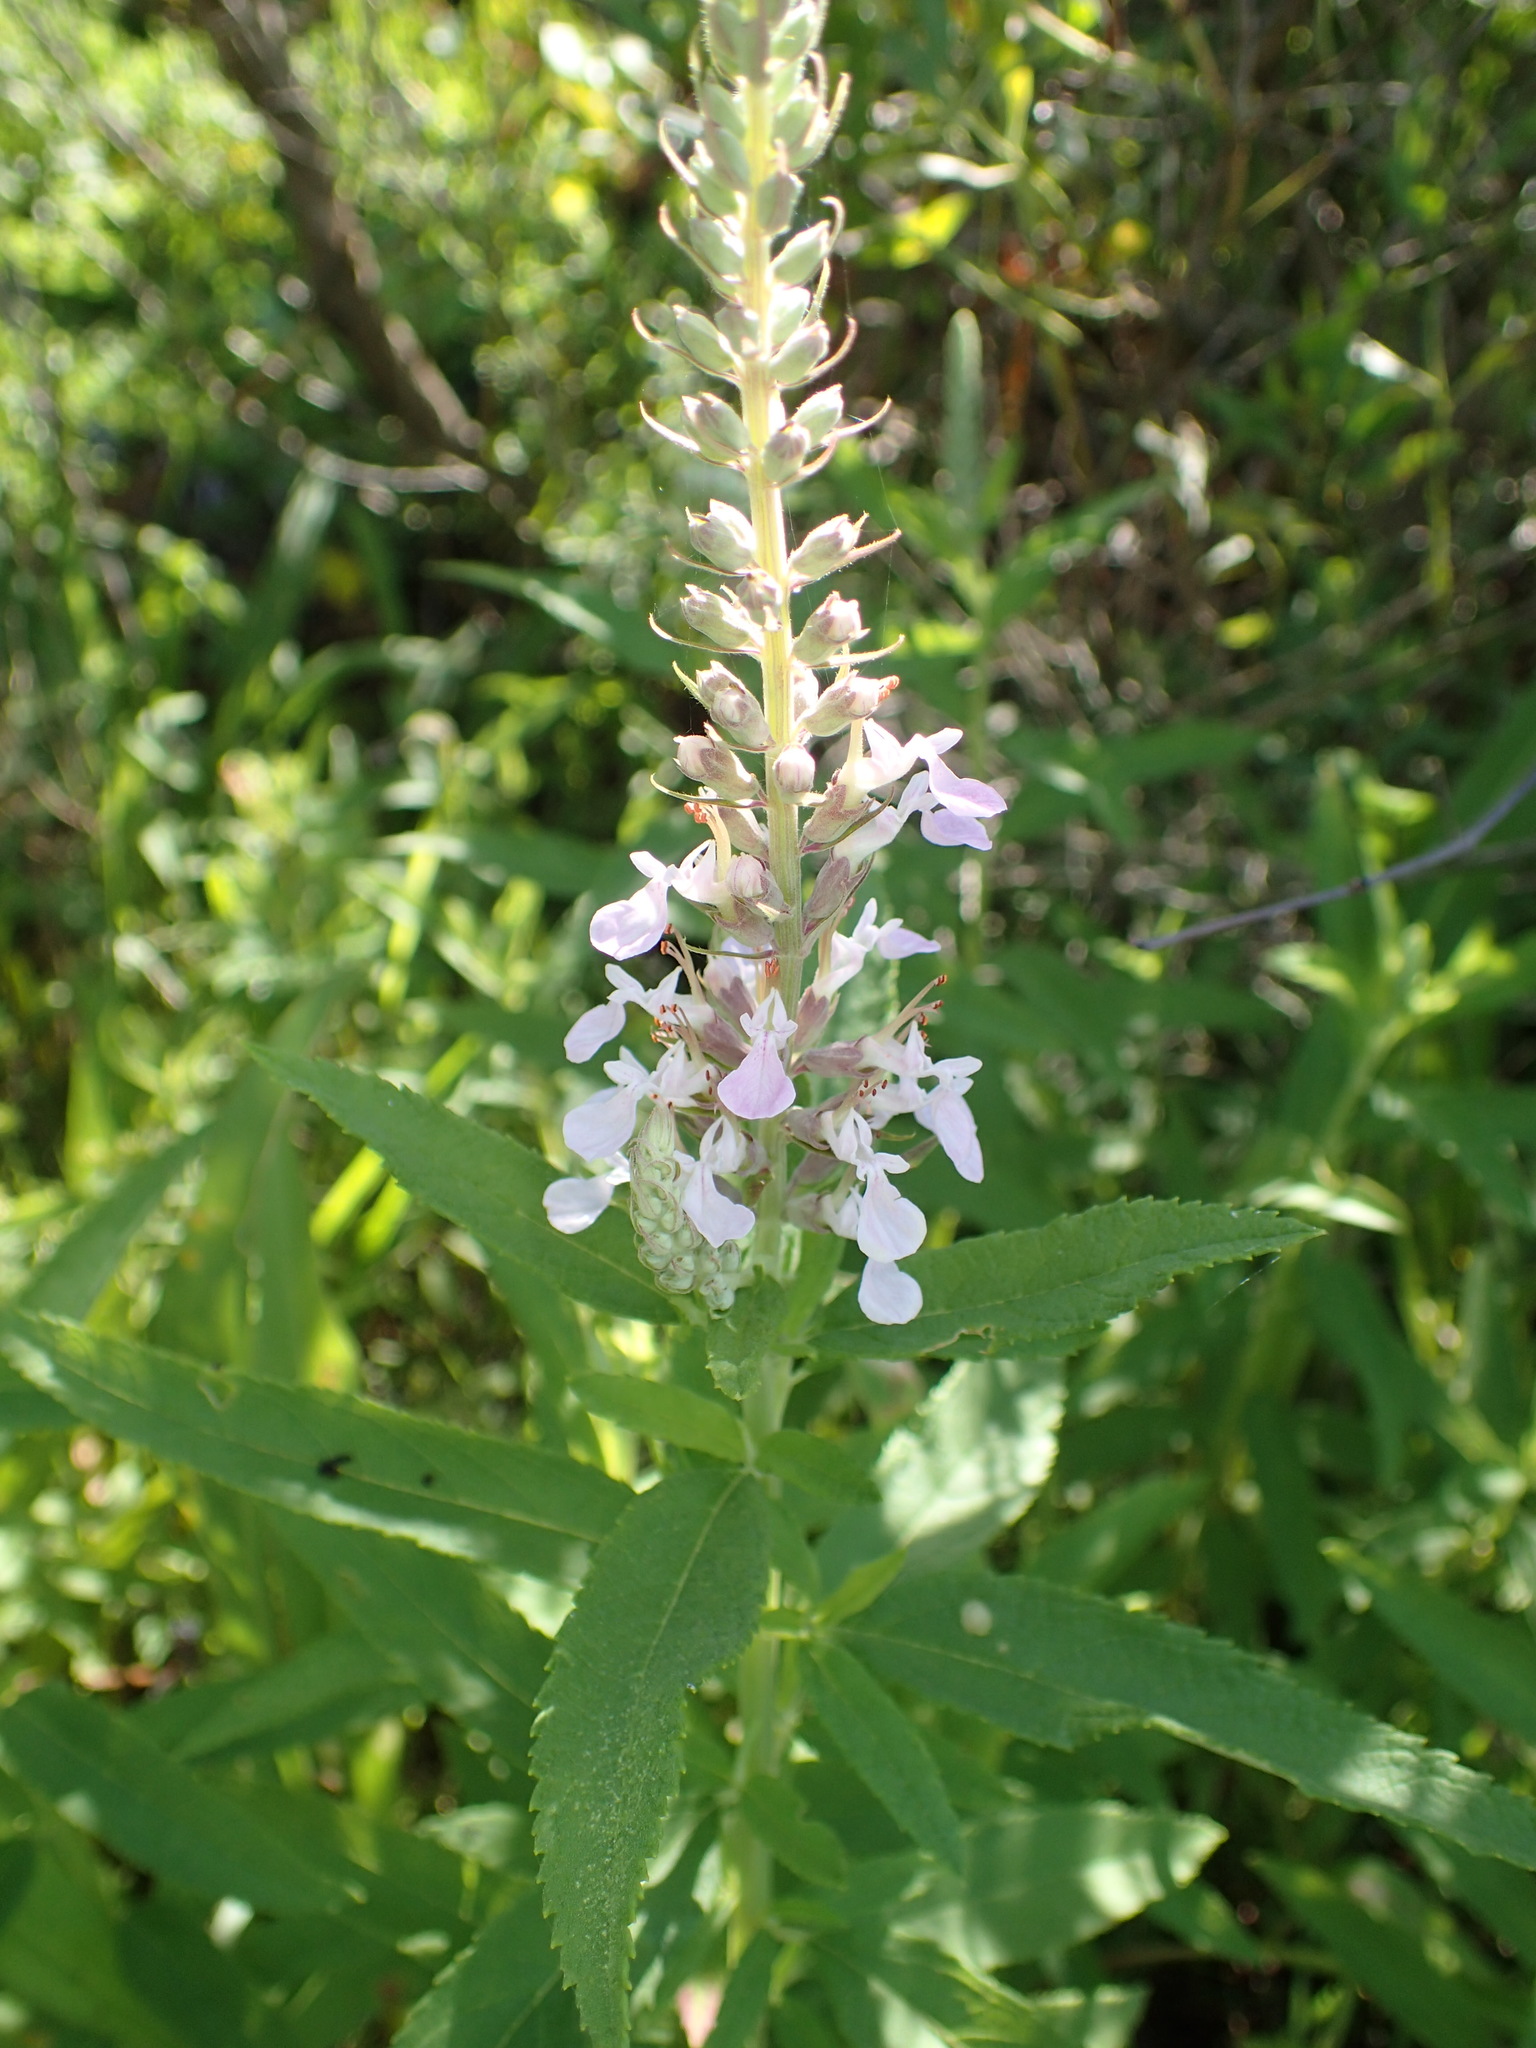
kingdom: Plantae
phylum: Tracheophyta
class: Magnoliopsida
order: Lamiales
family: Lamiaceae
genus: Teucrium
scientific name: Teucrium canadense
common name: American germander
